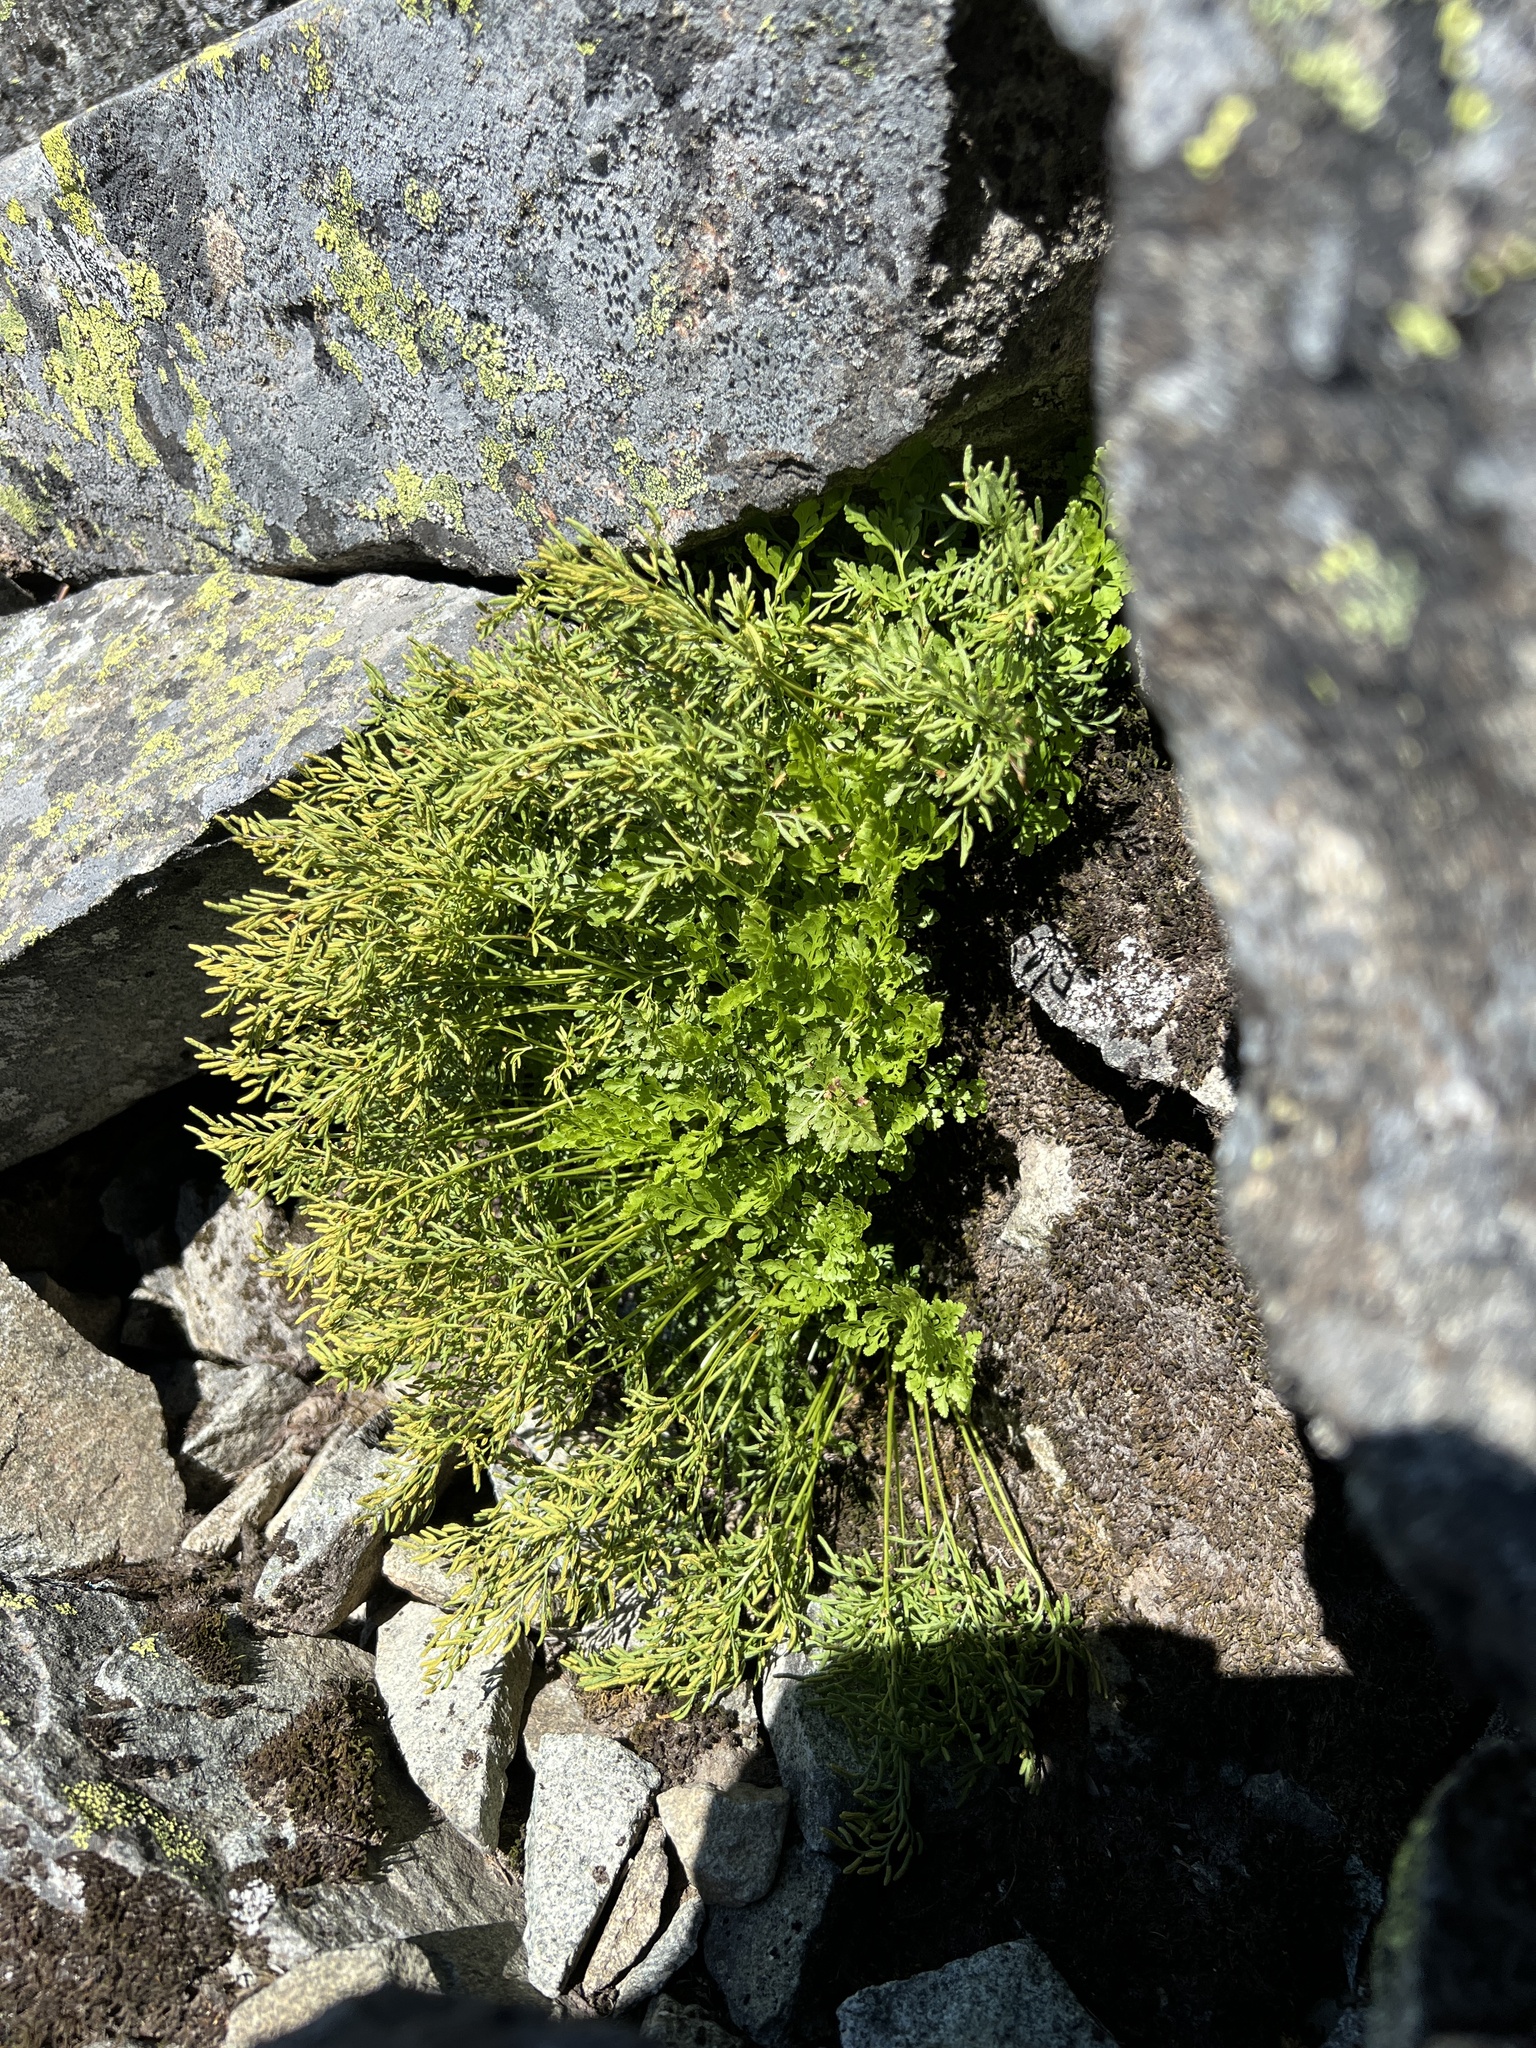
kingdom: Plantae
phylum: Tracheophyta
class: Polypodiopsida
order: Polypodiales
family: Pteridaceae
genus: Cryptogramma
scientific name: Cryptogramma cascadensis
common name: Cascade parsley fern
